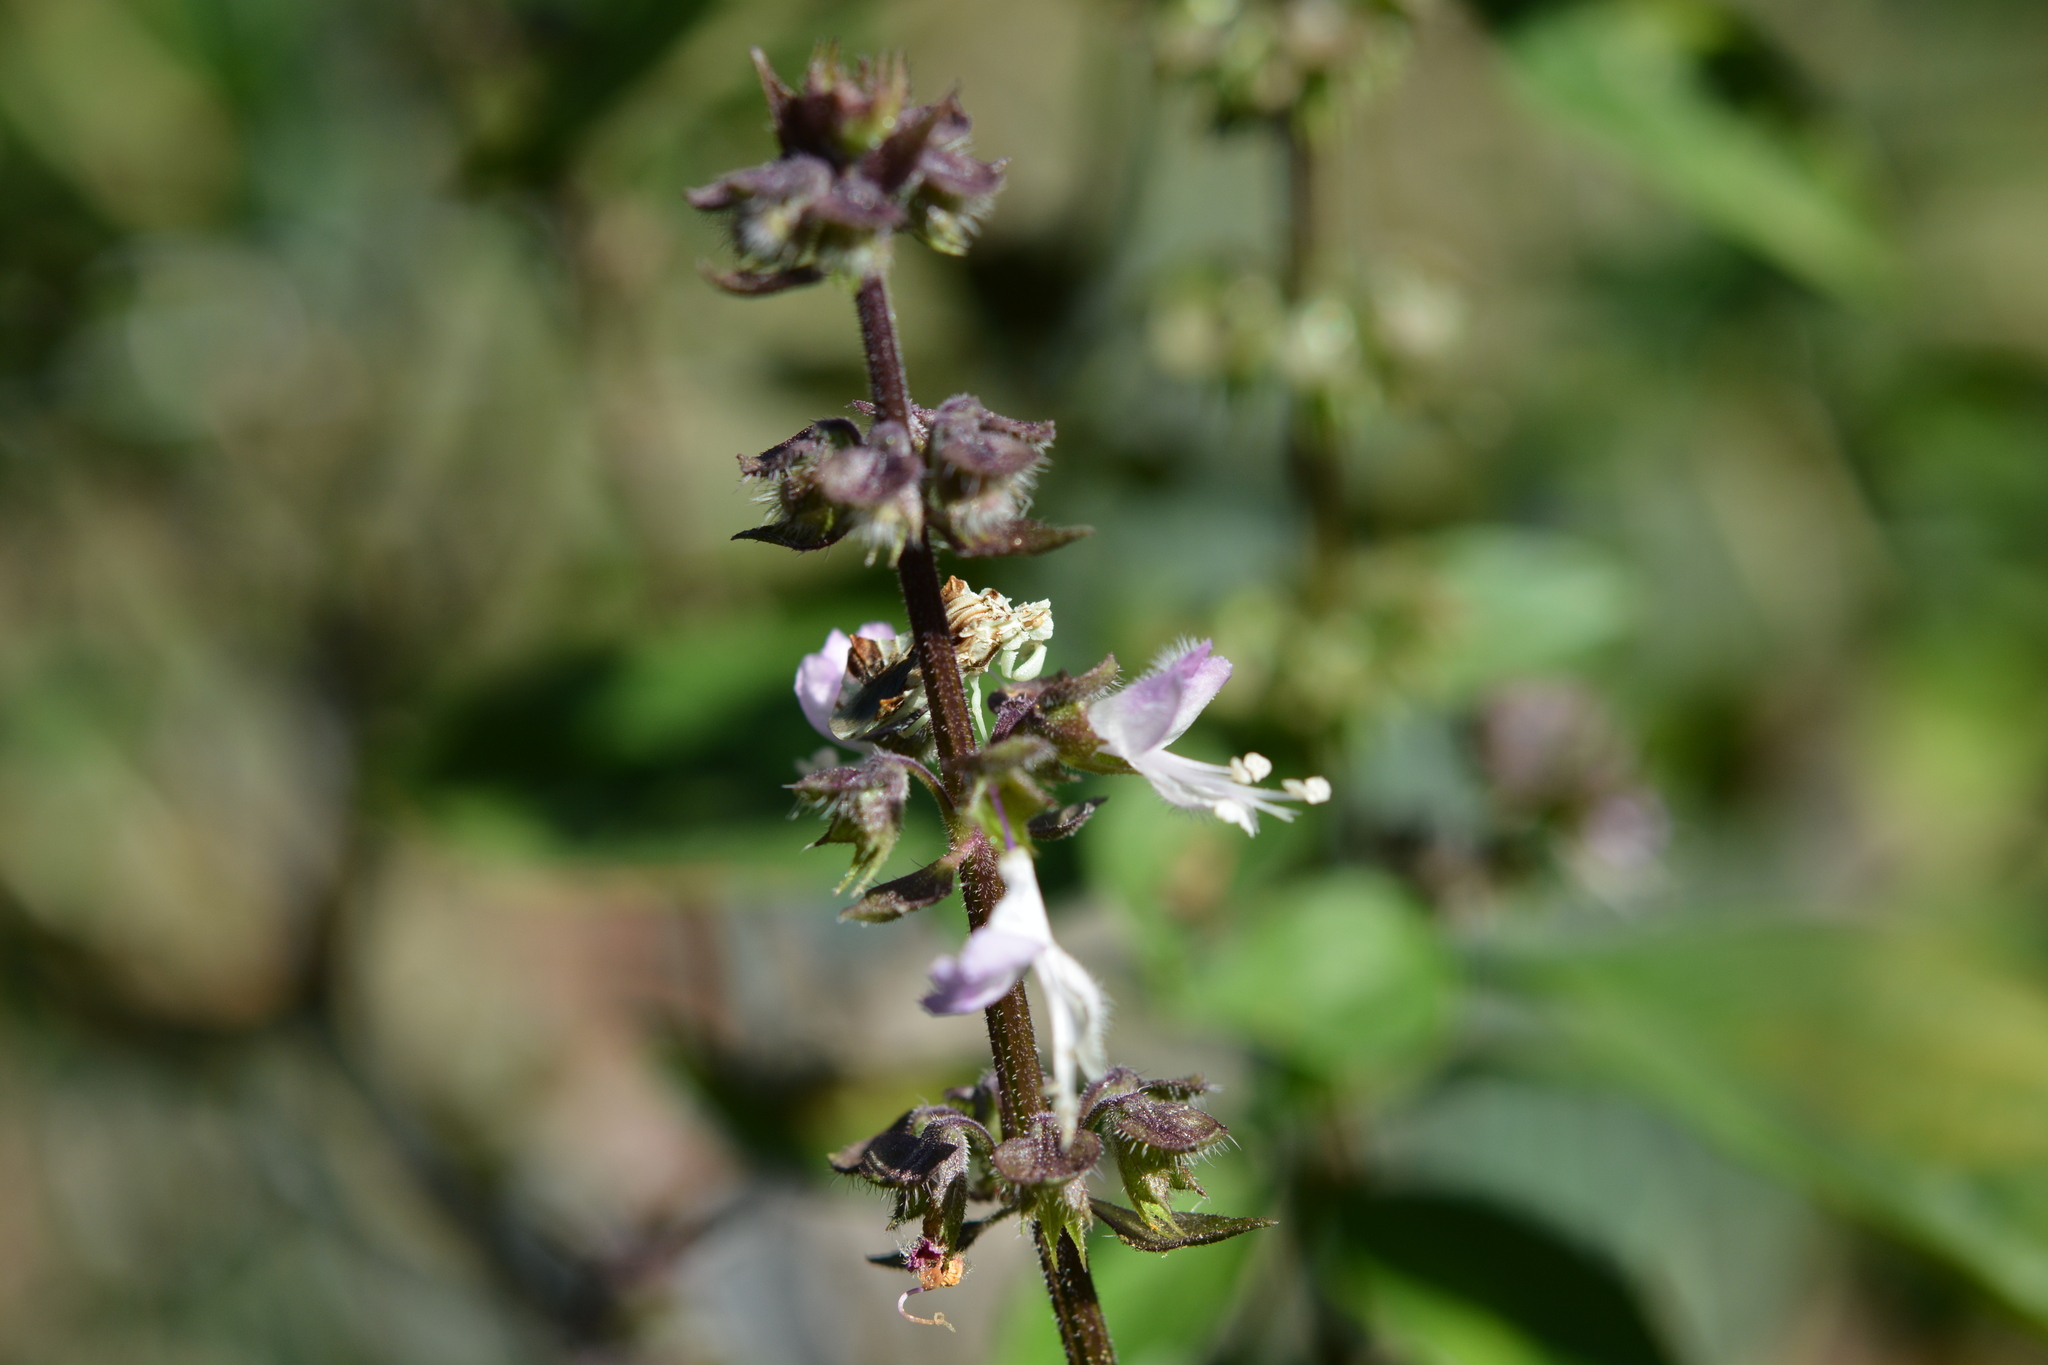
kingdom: Animalia
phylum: Arthropoda
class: Insecta
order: Hemiptera
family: Reduviidae
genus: Phymata
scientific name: Phymata fasciata
